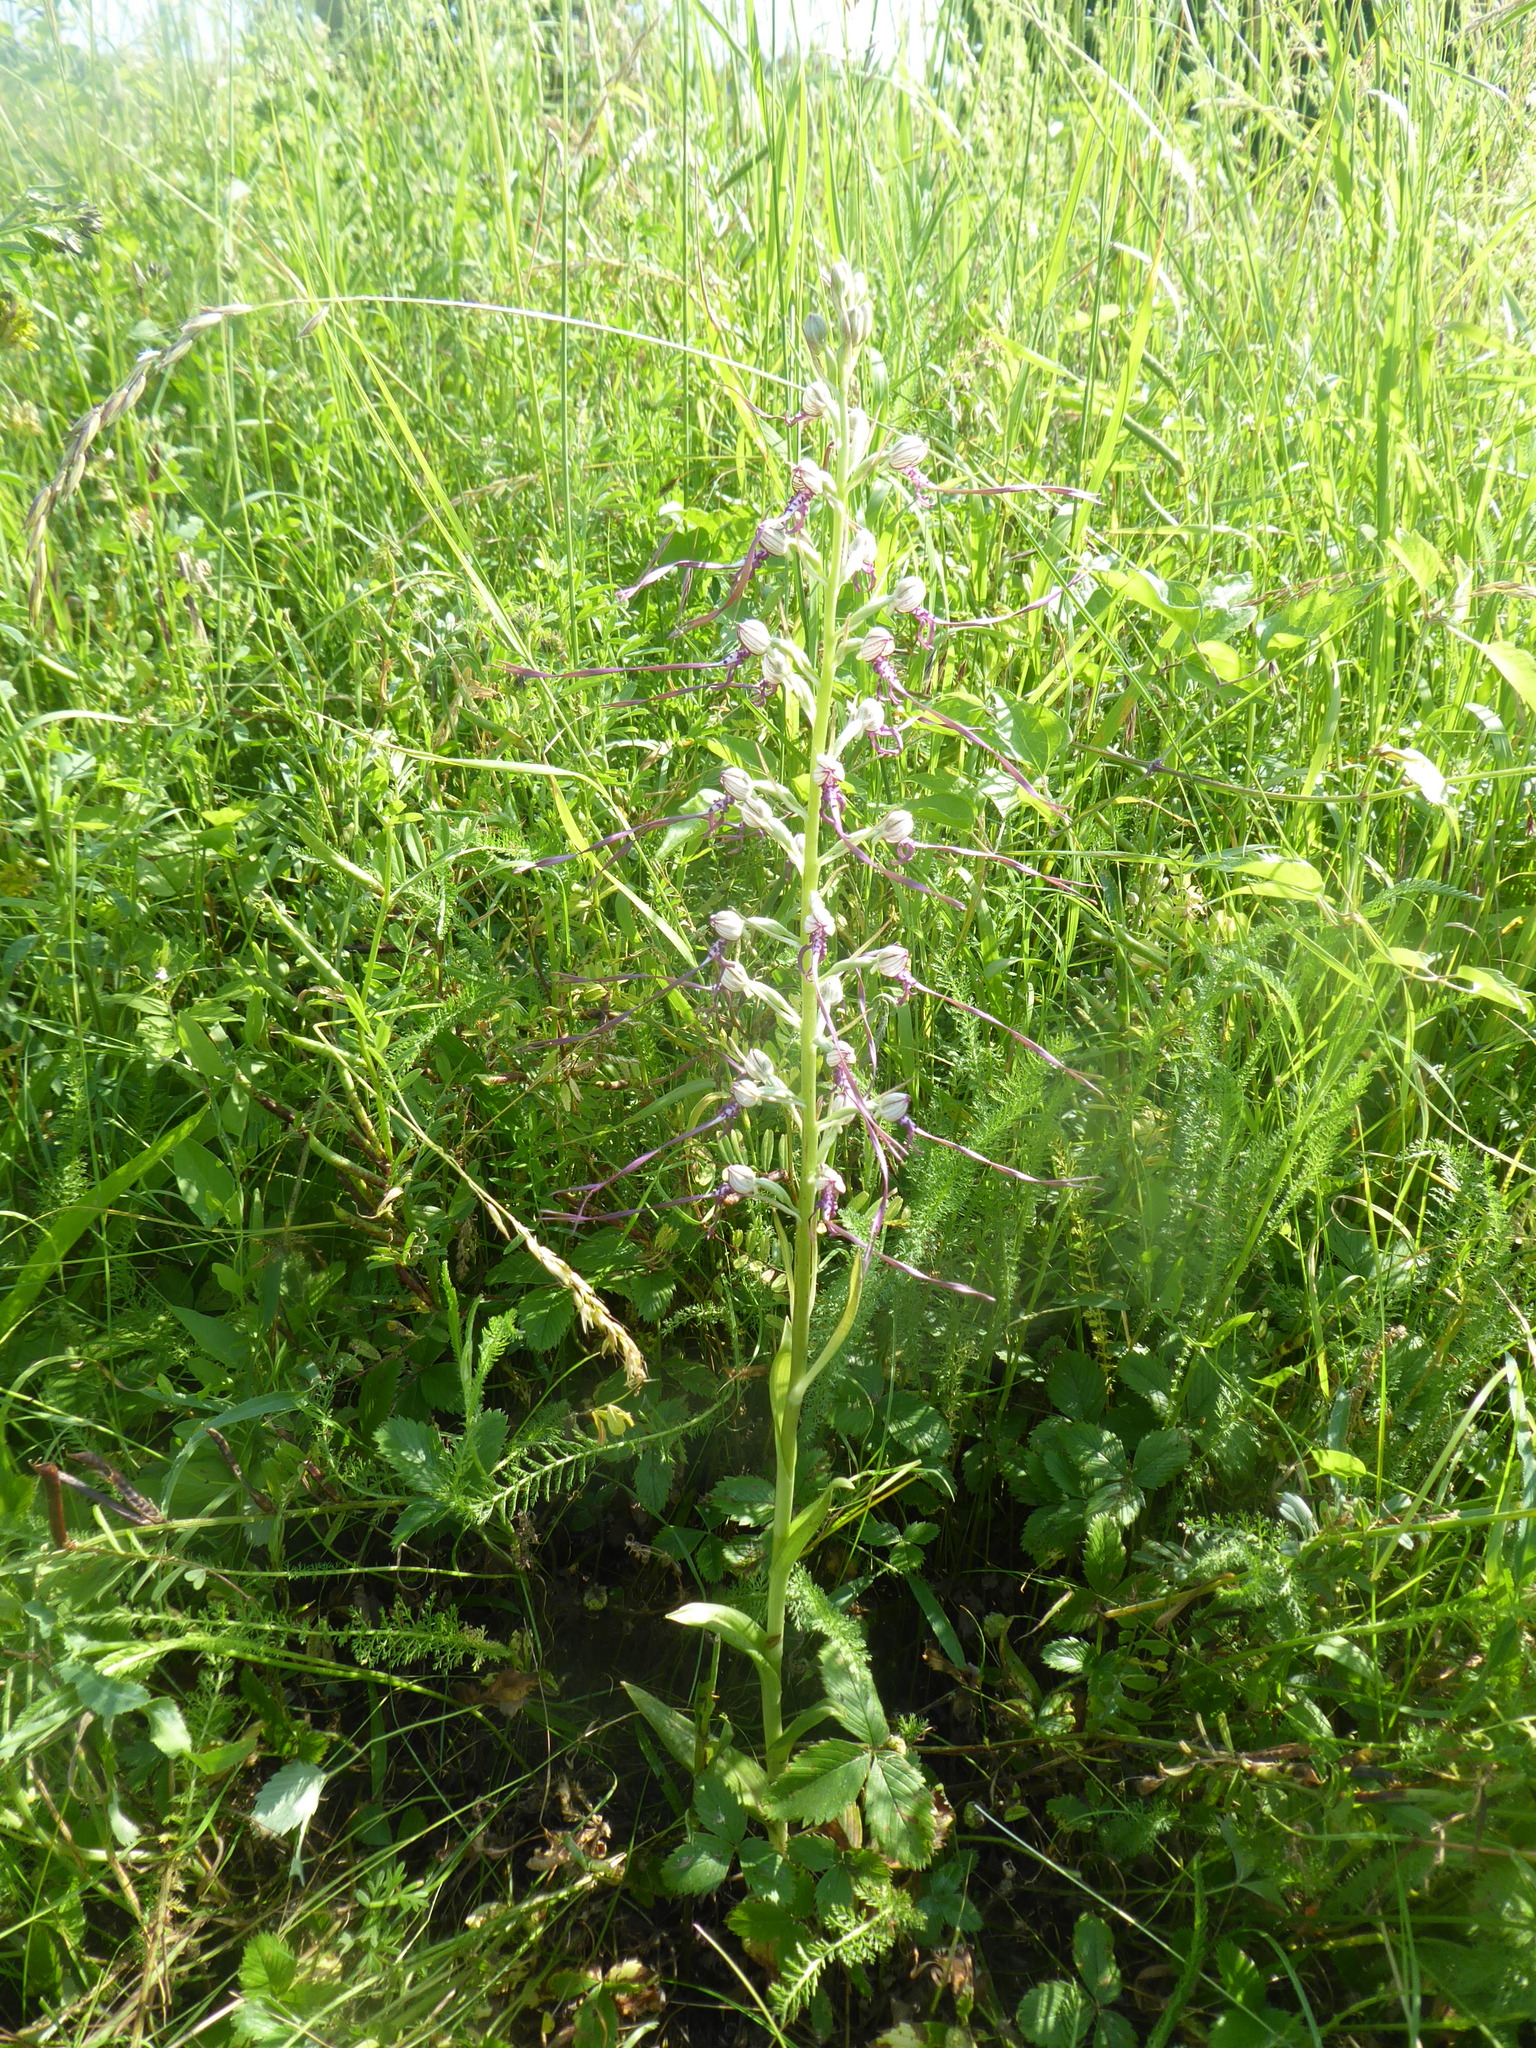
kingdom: Plantae
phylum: Tracheophyta
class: Liliopsida
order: Asparagales
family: Orchidaceae
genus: Himantoglossum
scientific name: Himantoglossum adriaticum
